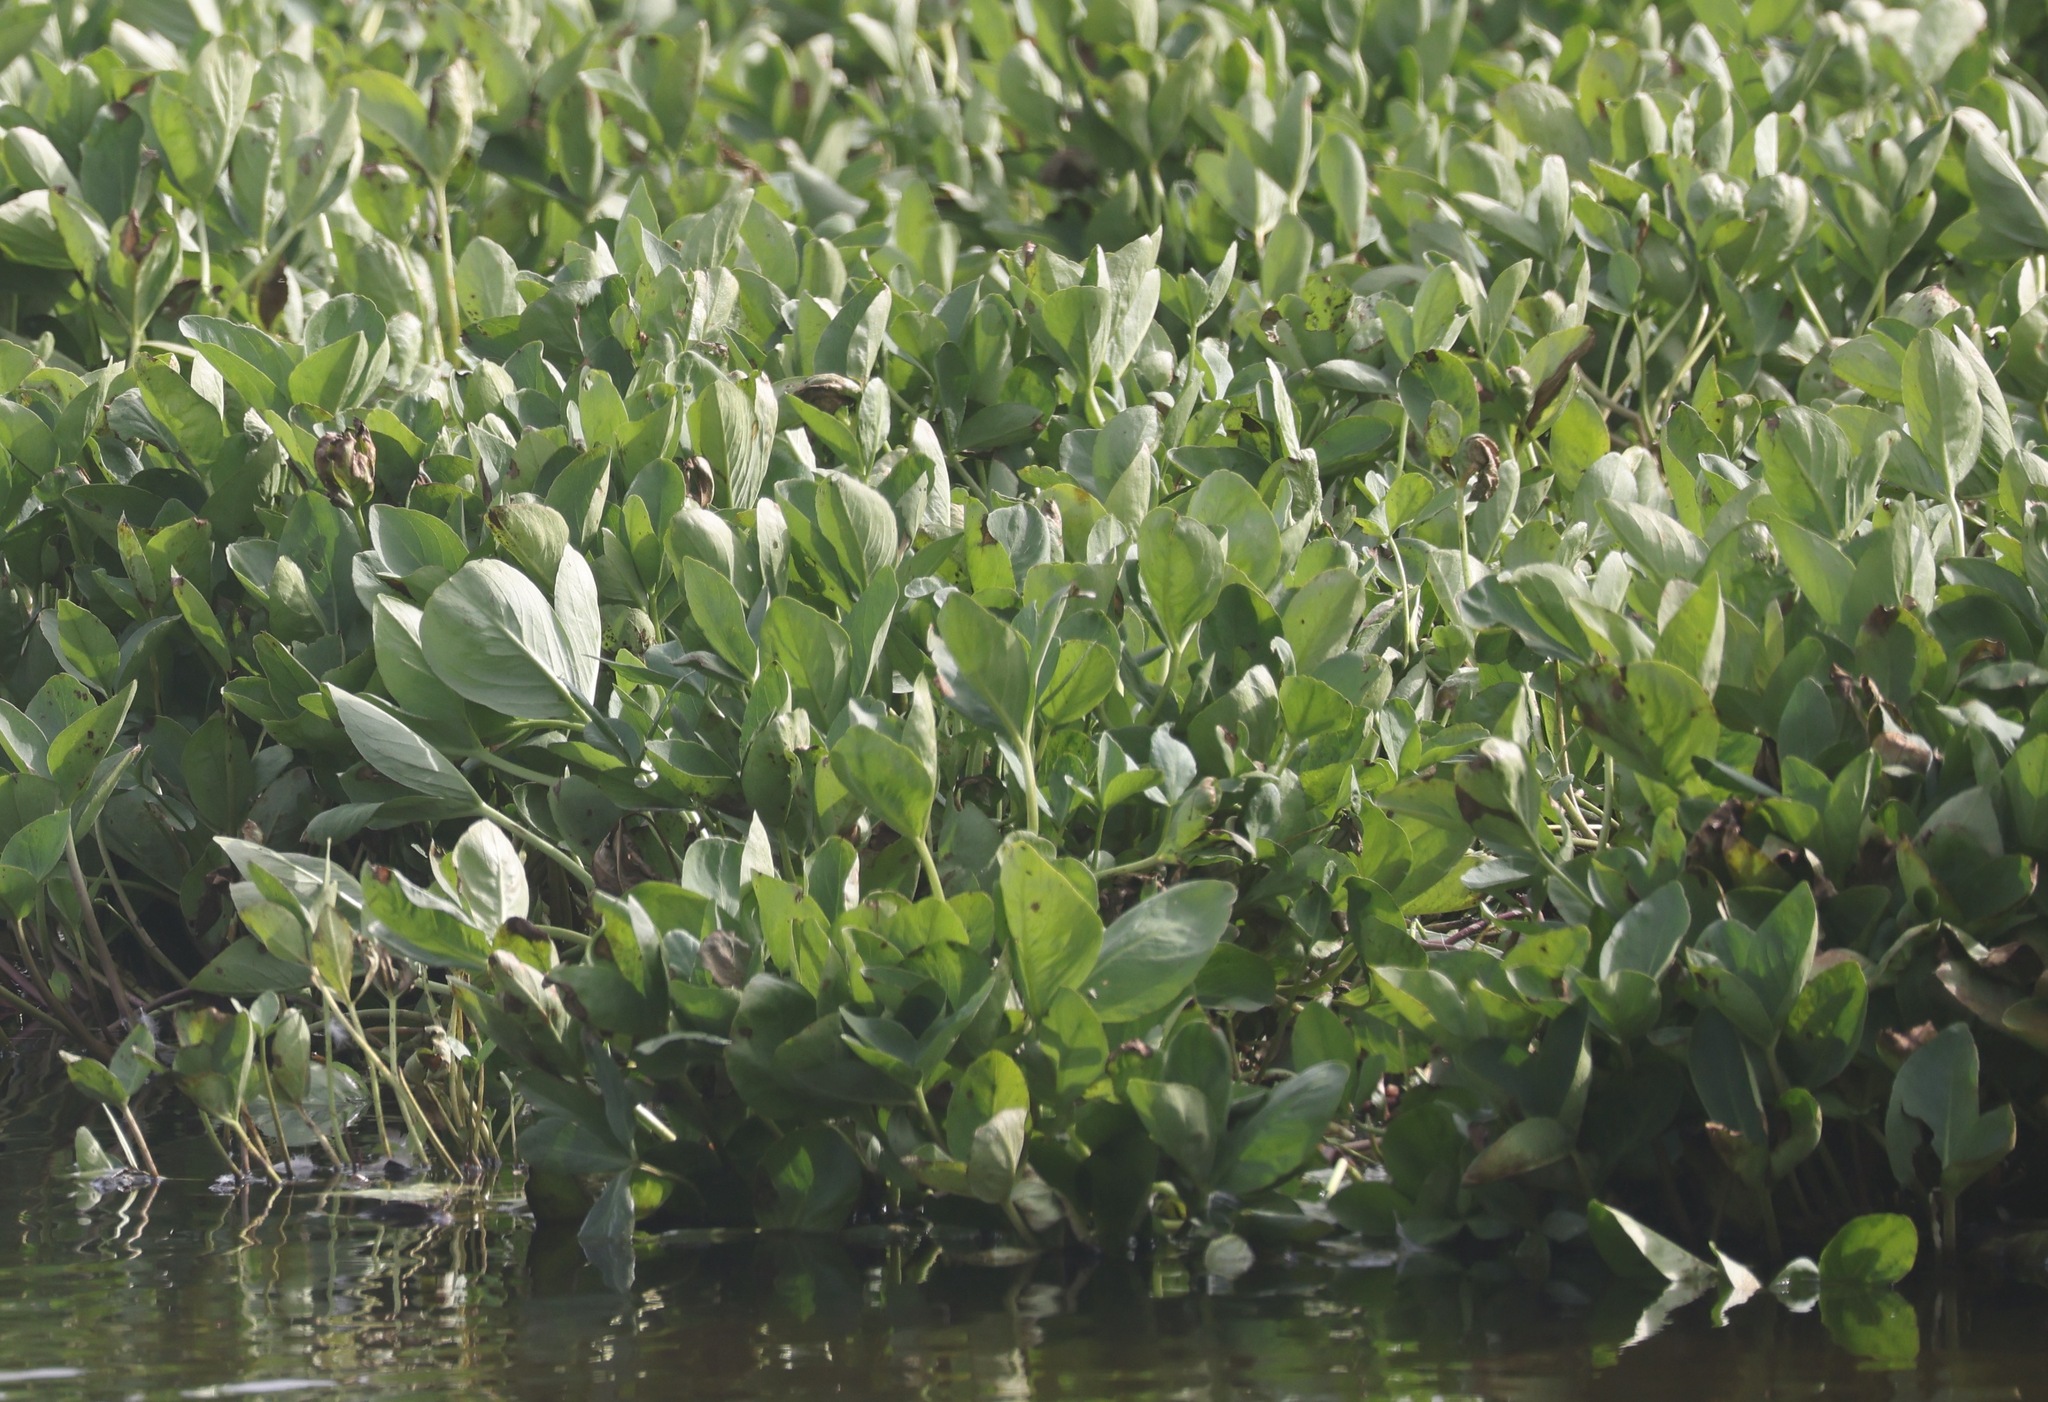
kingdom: Plantae
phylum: Tracheophyta
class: Magnoliopsida
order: Asterales
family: Menyanthaceae
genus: Menyanthes
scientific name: Menyanthes trifoliata
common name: Bogbean
